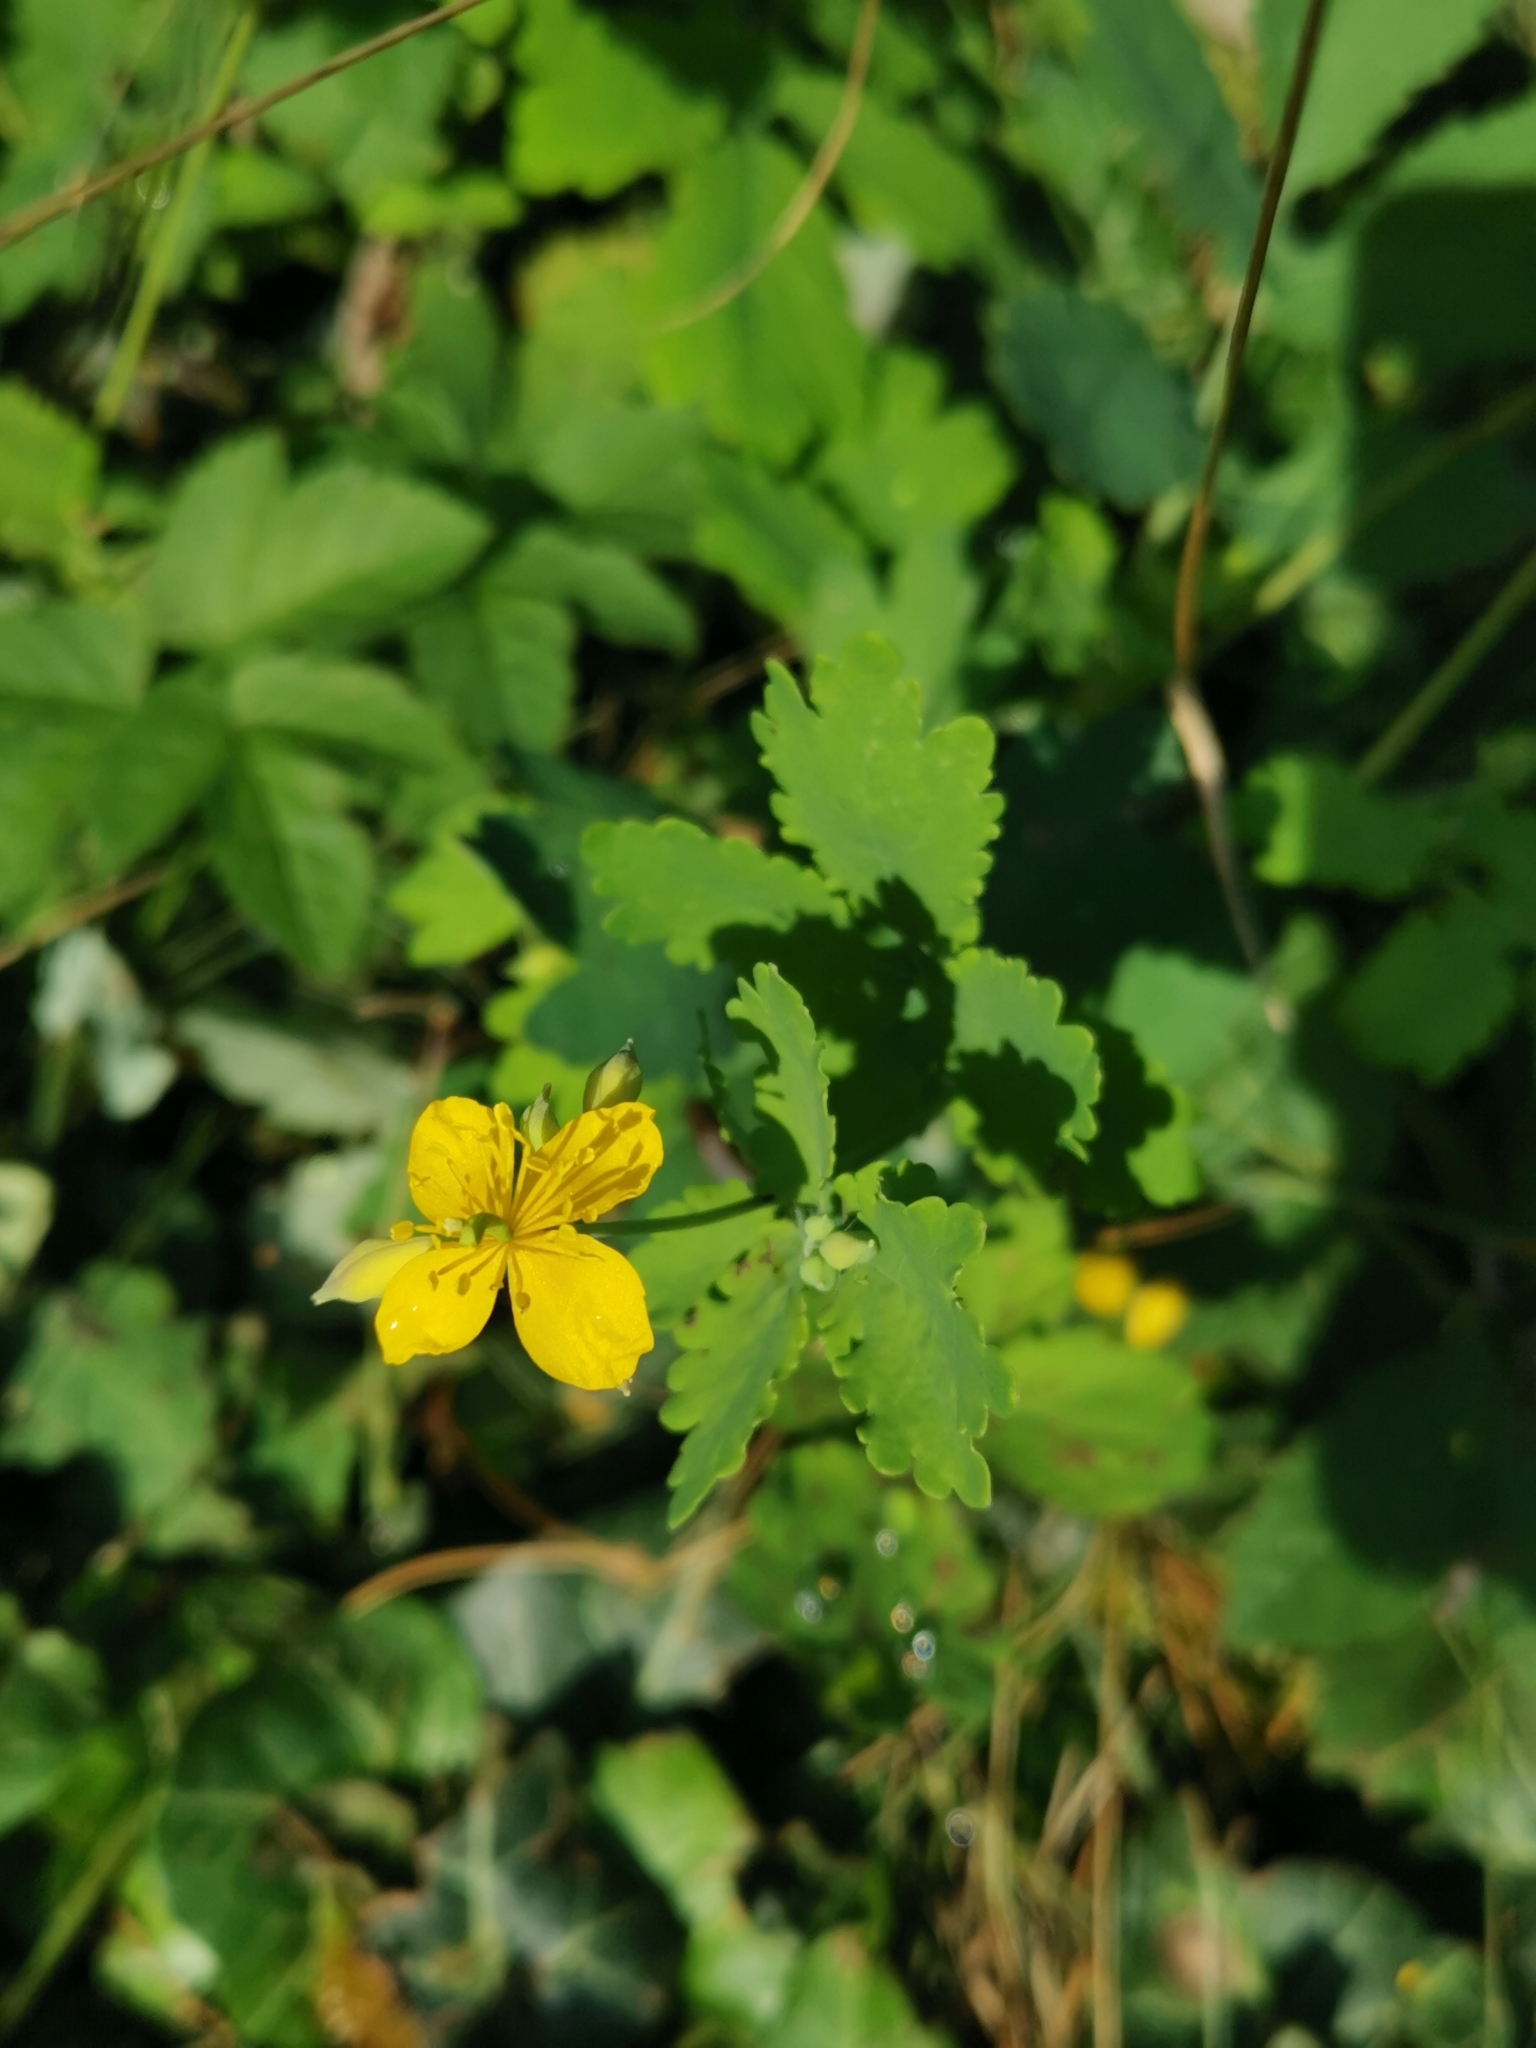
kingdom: Plantae
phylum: Tracheophyta
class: Magnoliopsida
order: Ranunculales
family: Papaveraceae
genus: Chelidonium
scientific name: Chelidonium majus
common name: Greater celandine
